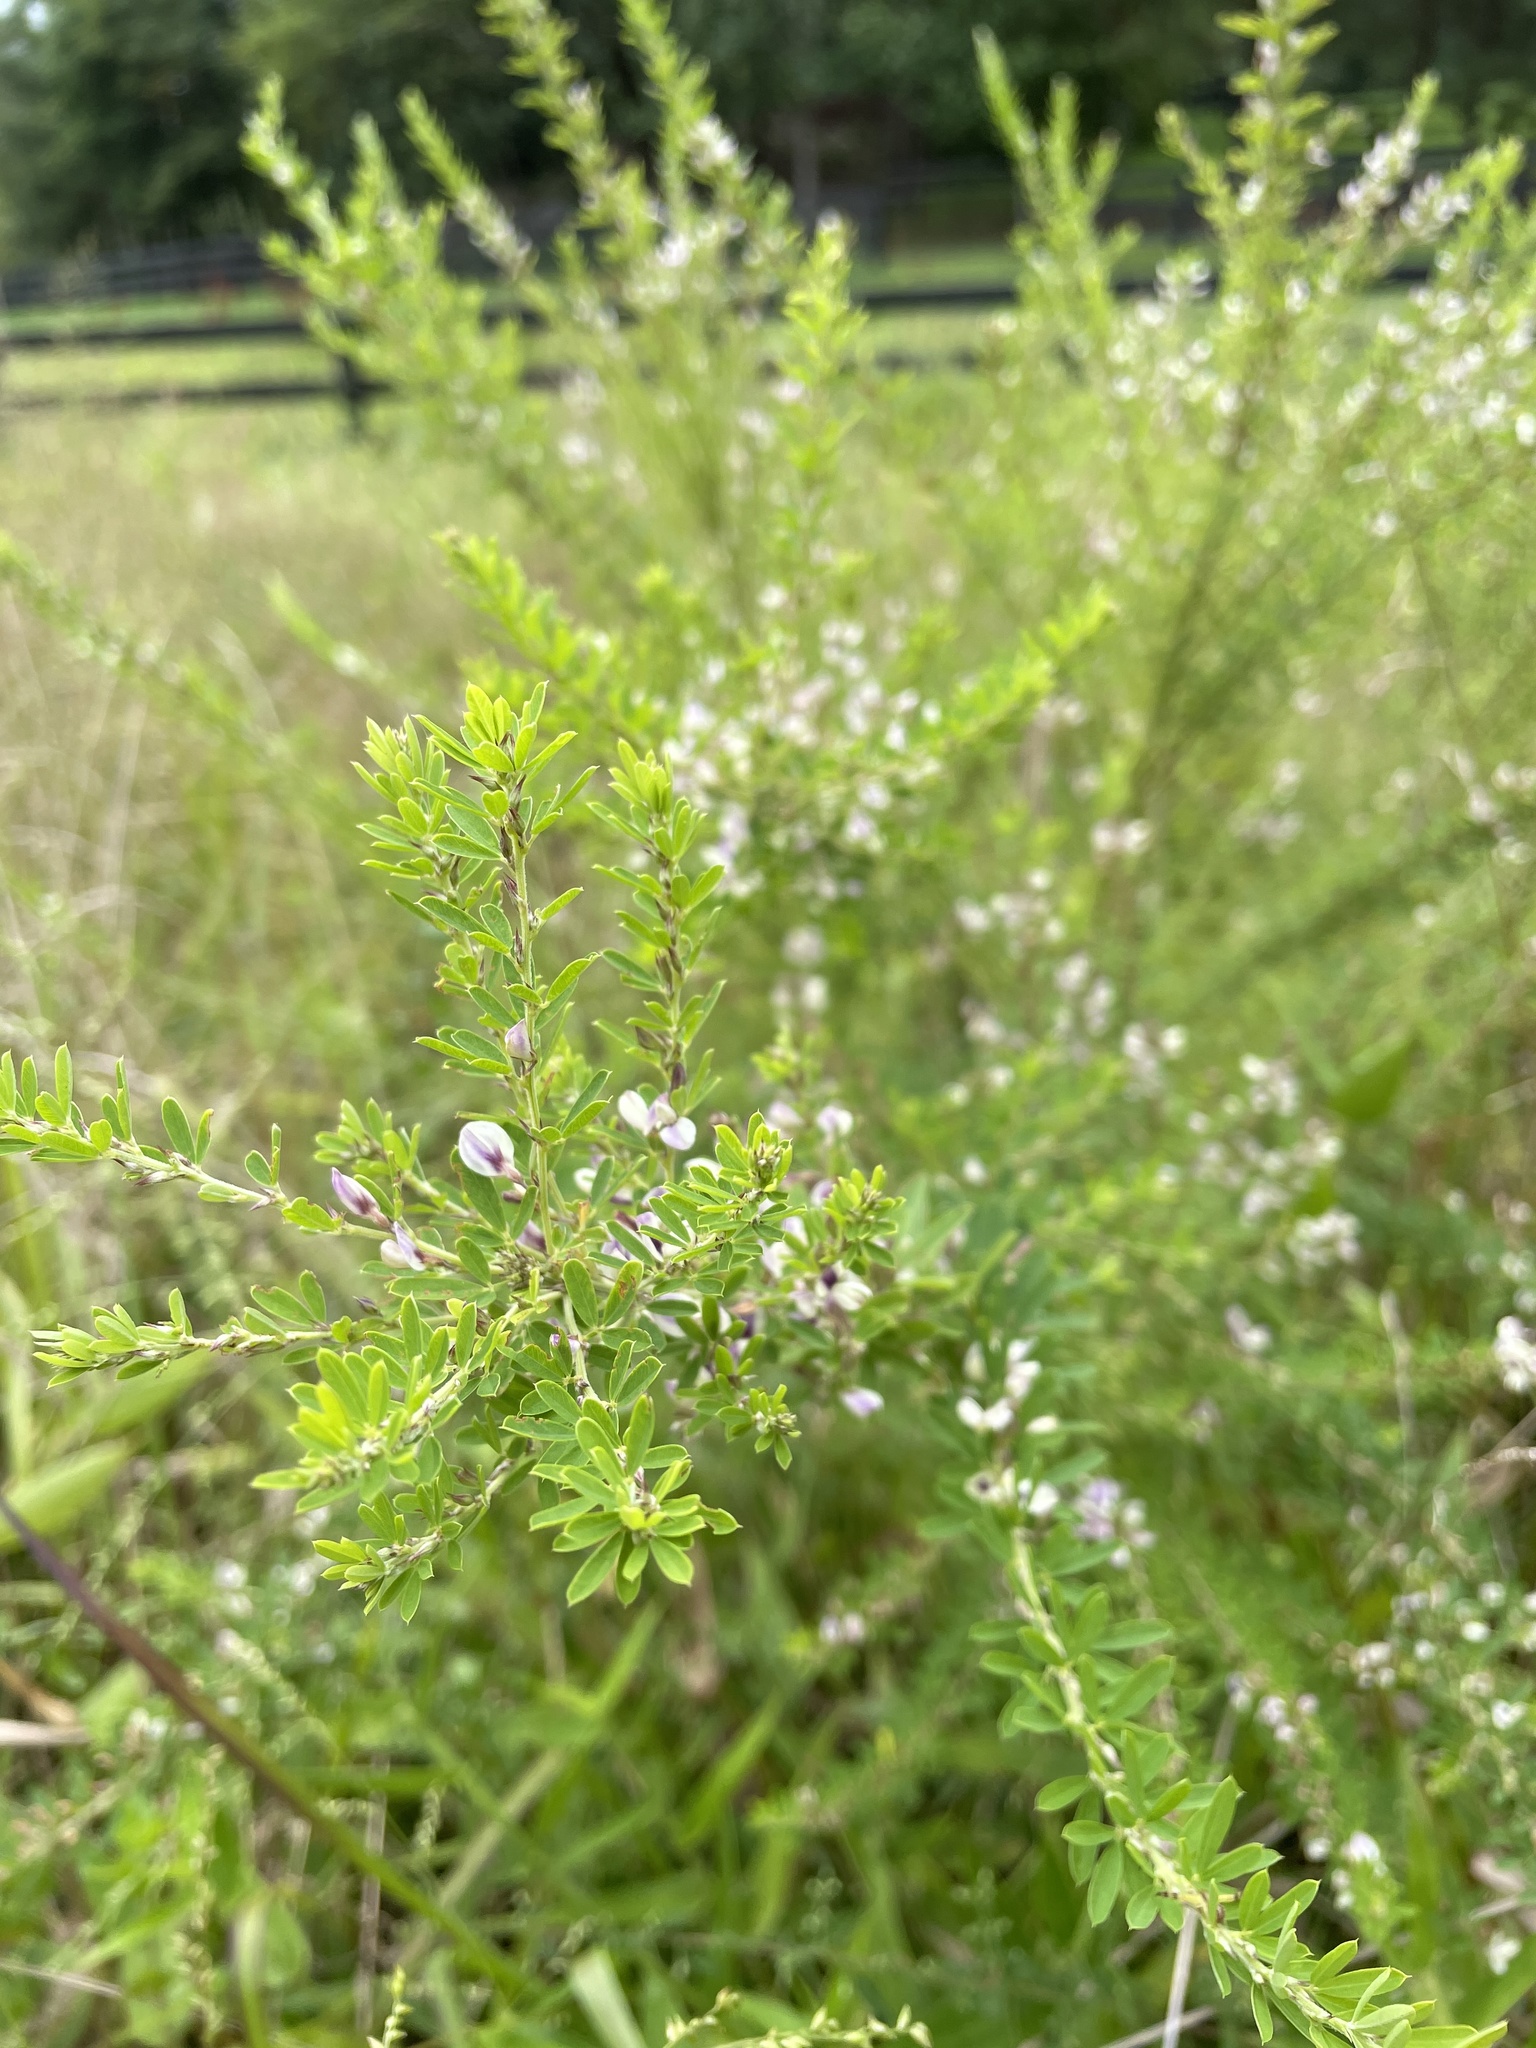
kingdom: Plantae
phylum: Tracheophyta
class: Magnoliopsida
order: Fabales
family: Fabaceae
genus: Lespedeza
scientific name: Lespedeza cuneata
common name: Chinese bush-clover
